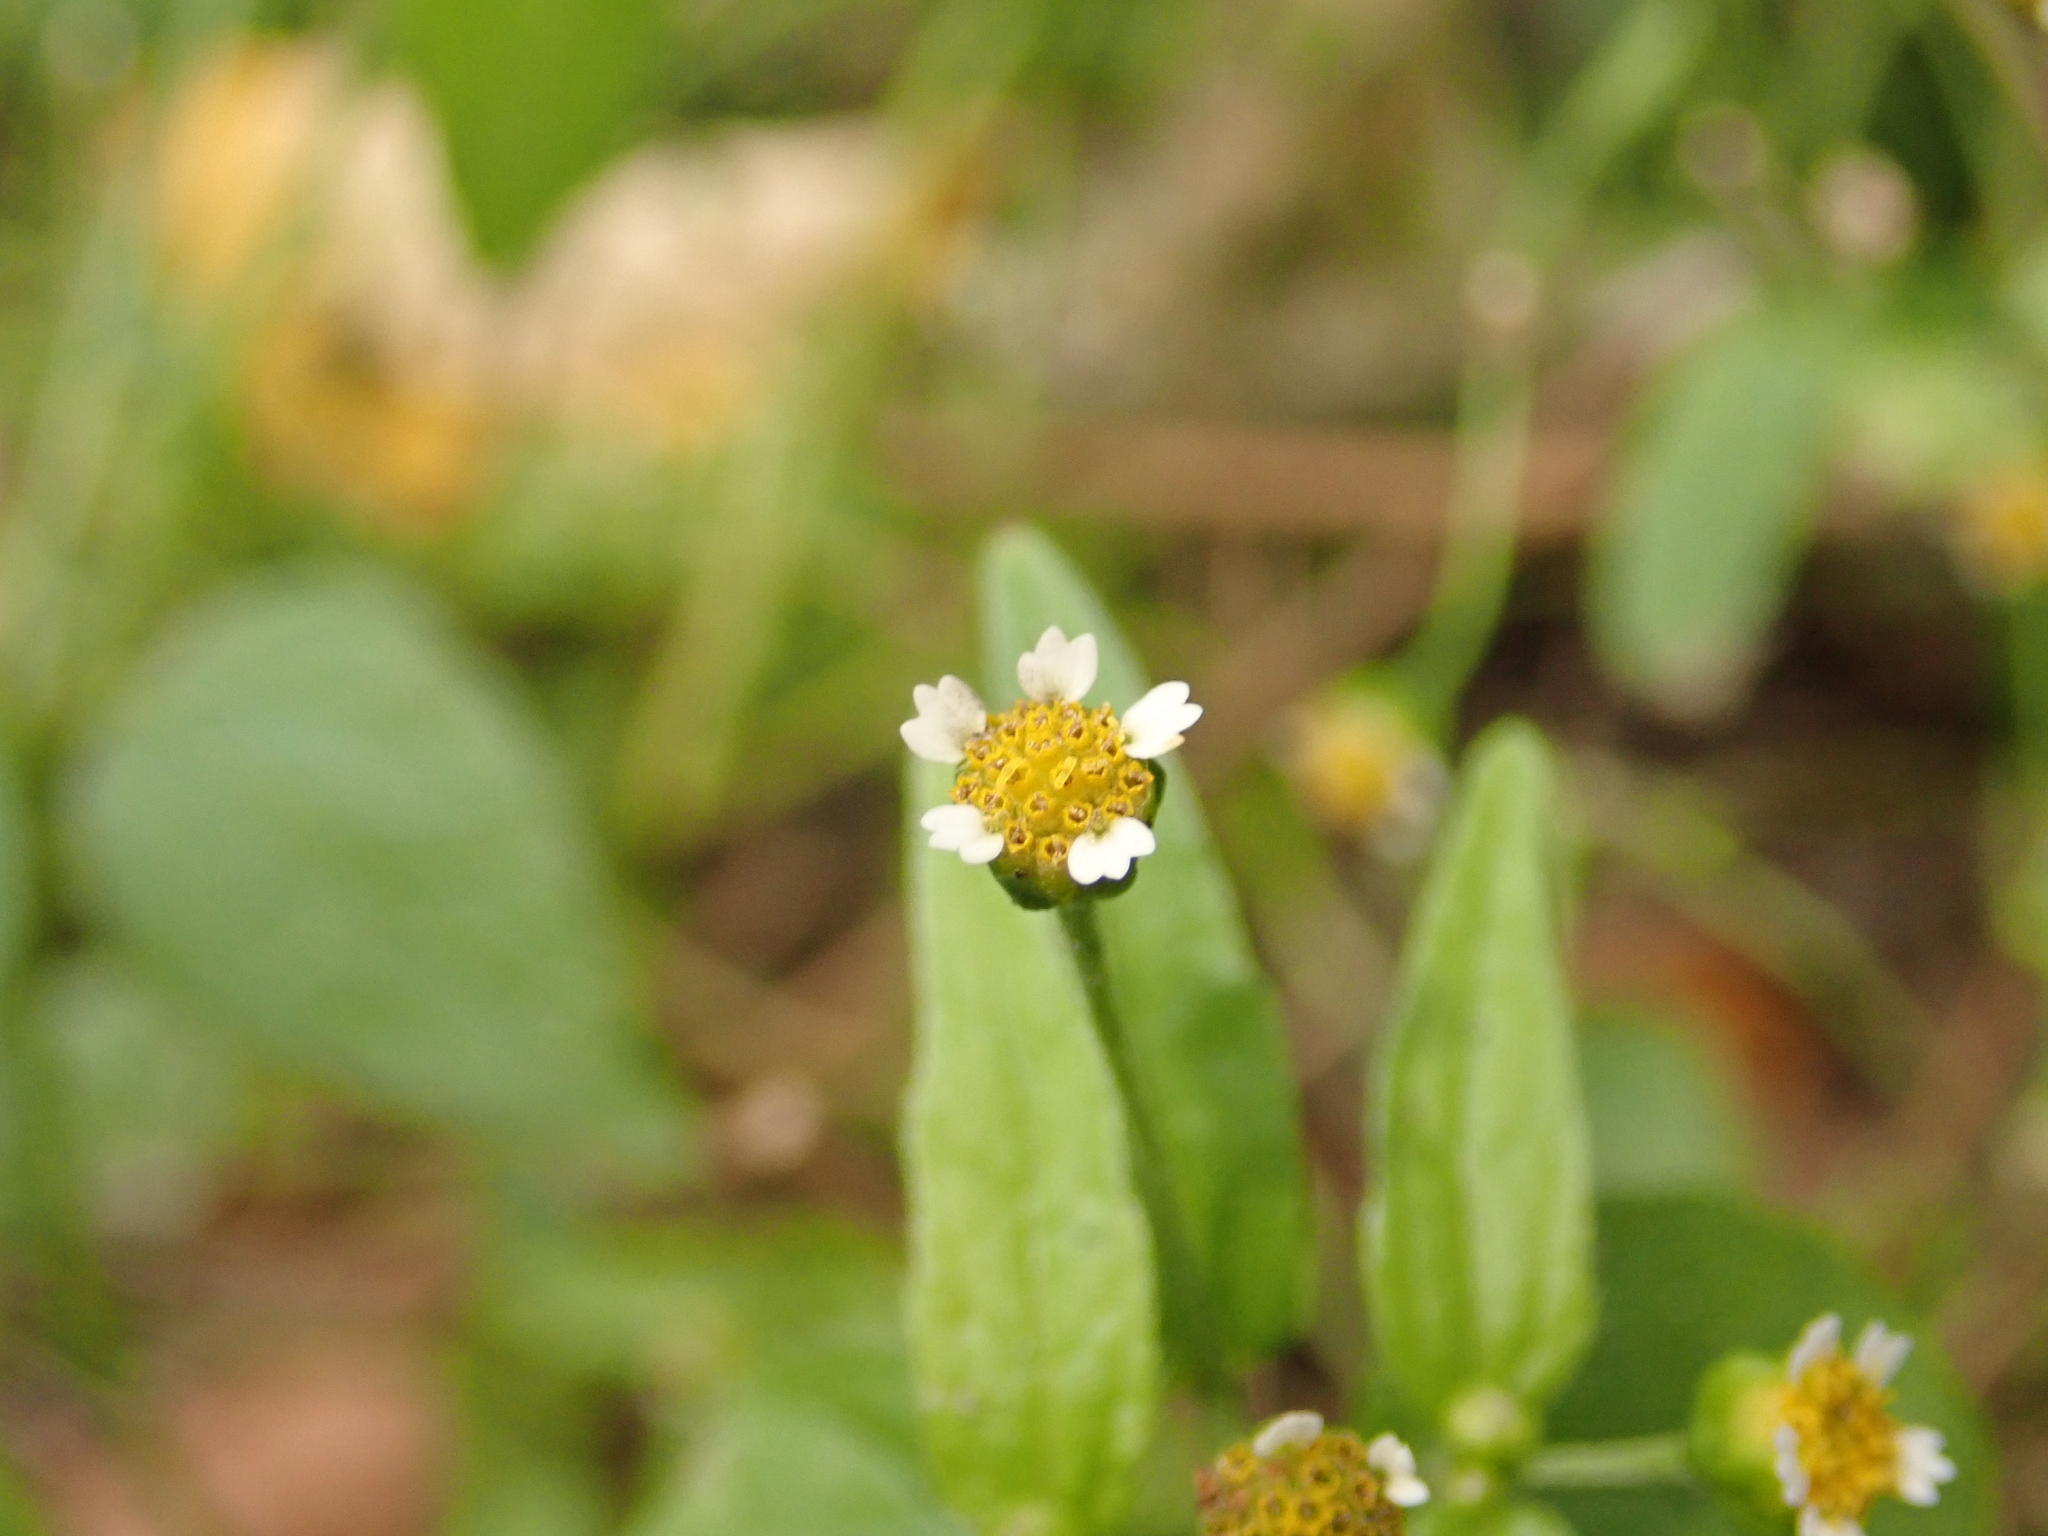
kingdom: Plantae
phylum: Tracheophyta
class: Magnoliopsida
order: Asterales
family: Asteraceae
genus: Galinsoga
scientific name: Galinsoga parviflora
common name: Gallant soldier
